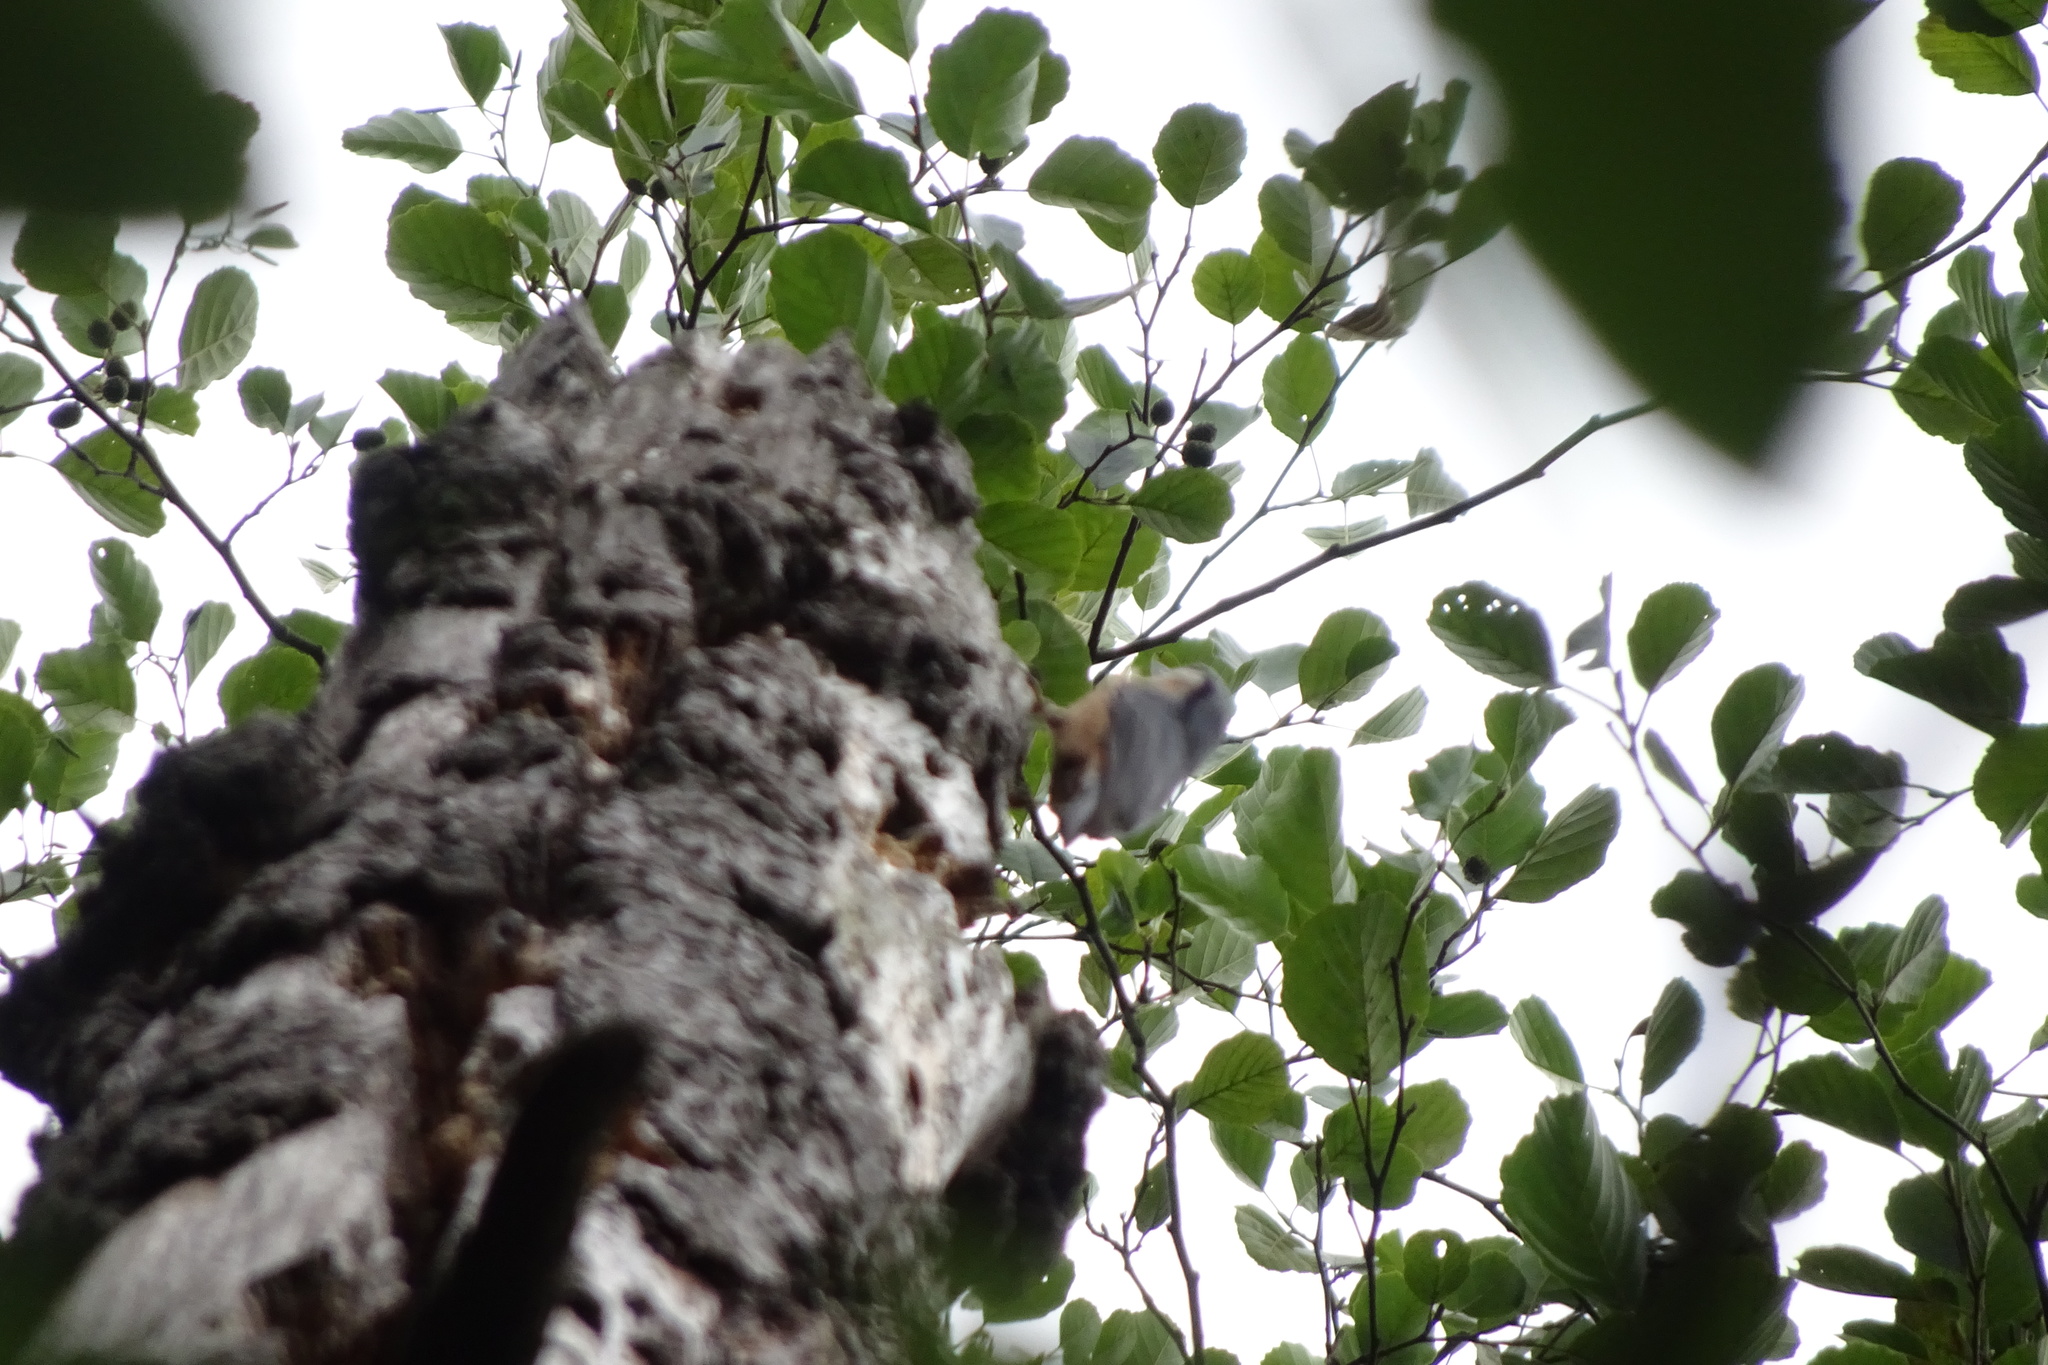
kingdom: Animalia
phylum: Chordata
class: Aves
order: Passeriformes
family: Sittidae
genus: Sitta
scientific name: Sitta europaea
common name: Eurasian nuthatch
